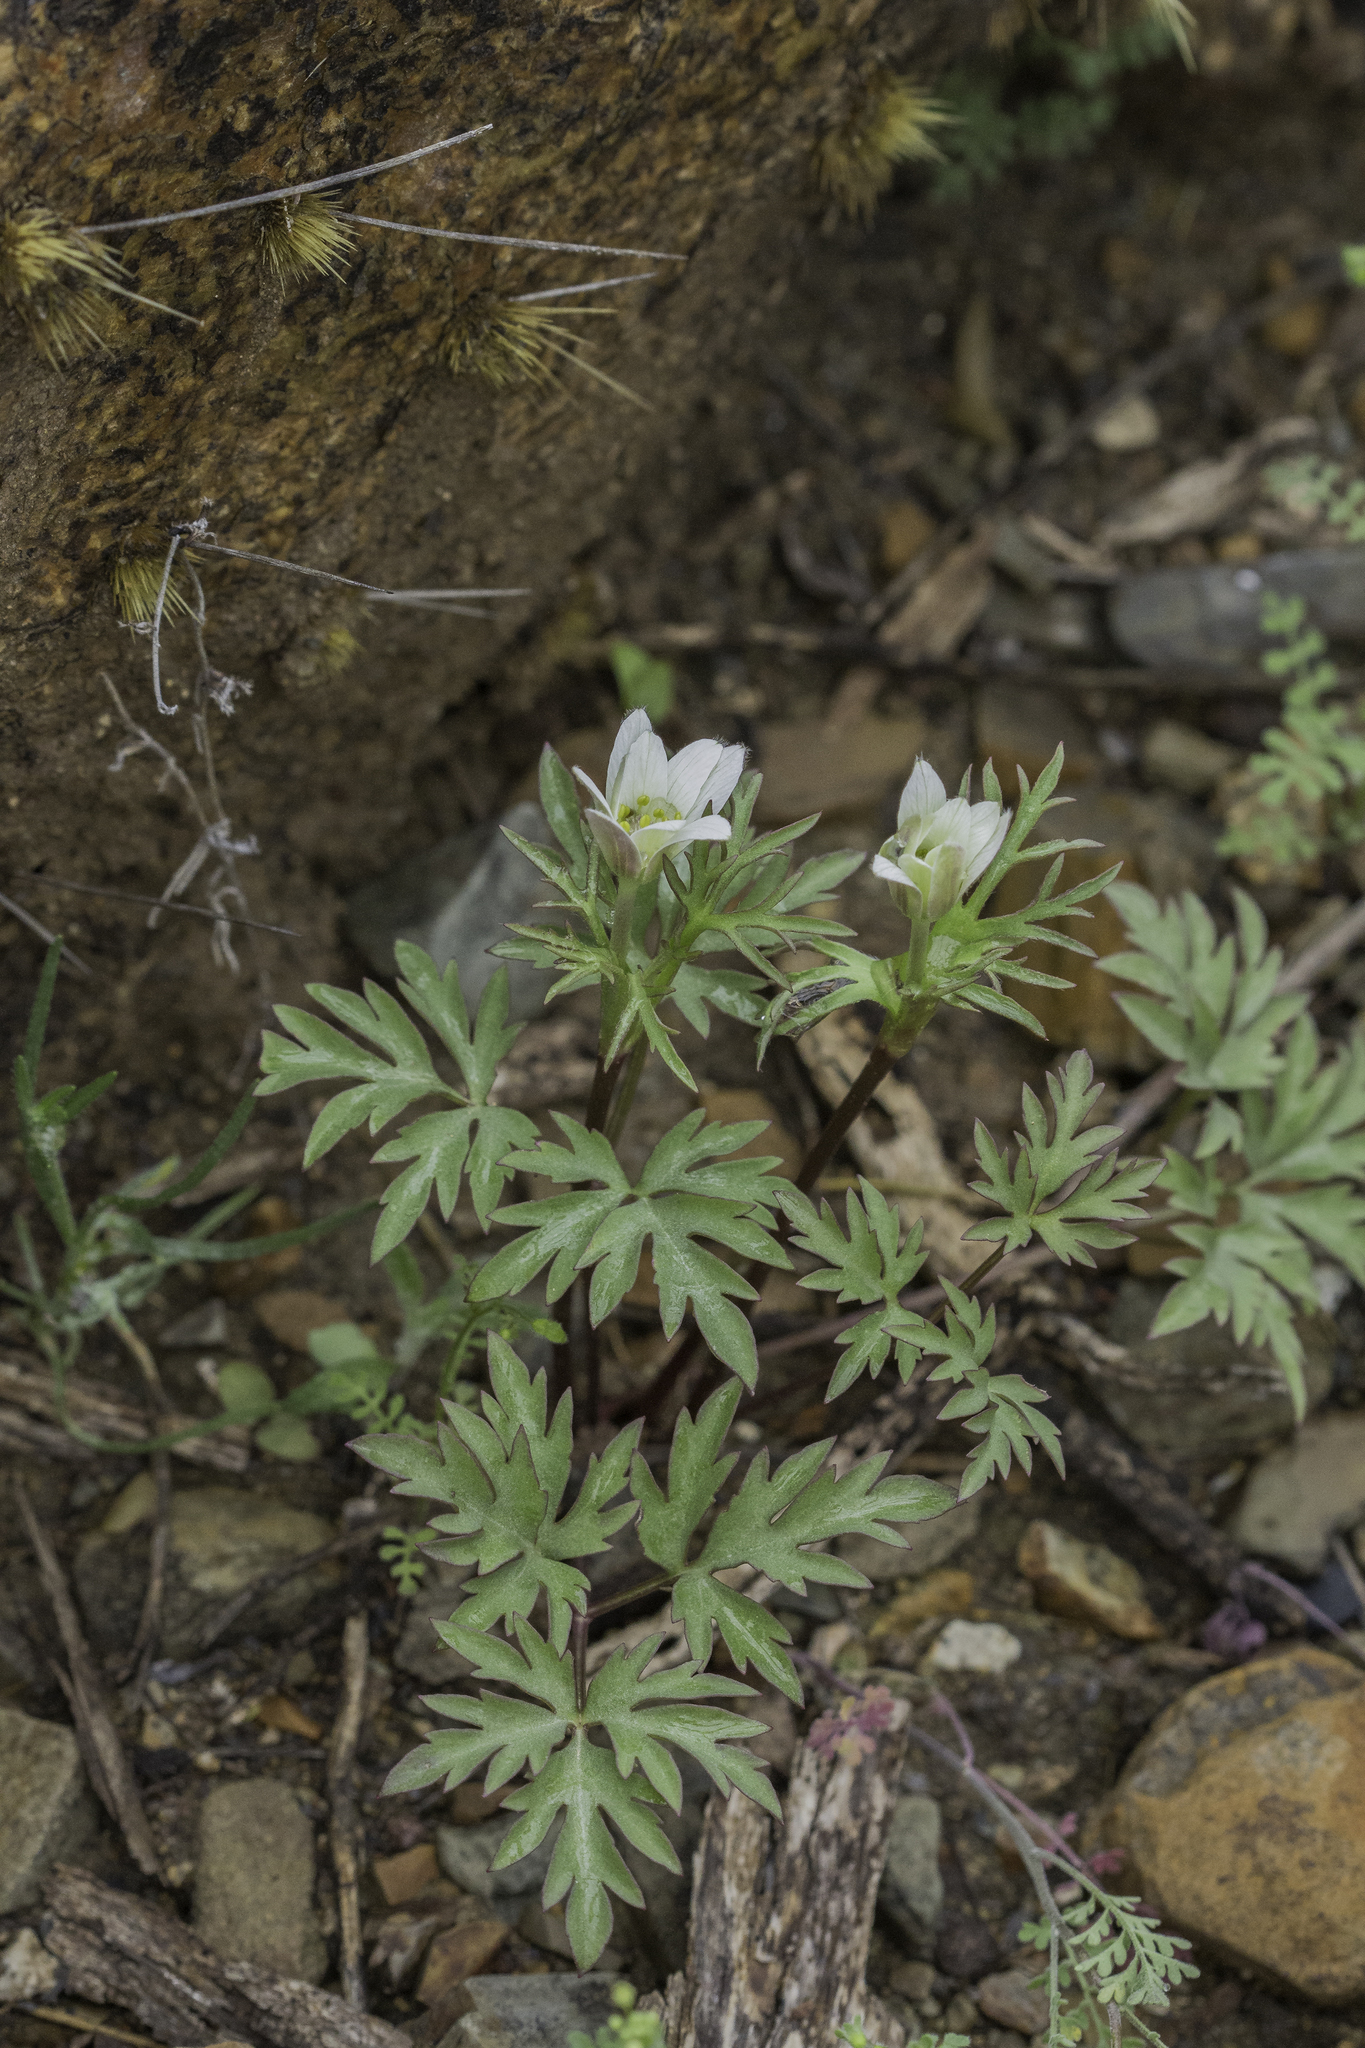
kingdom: Plantae
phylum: Tracheophyta
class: Magnoliopsida
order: Ranunculales
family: Ranunculaceae
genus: Anemone
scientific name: Anemone tuberosa
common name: Desert anemone
